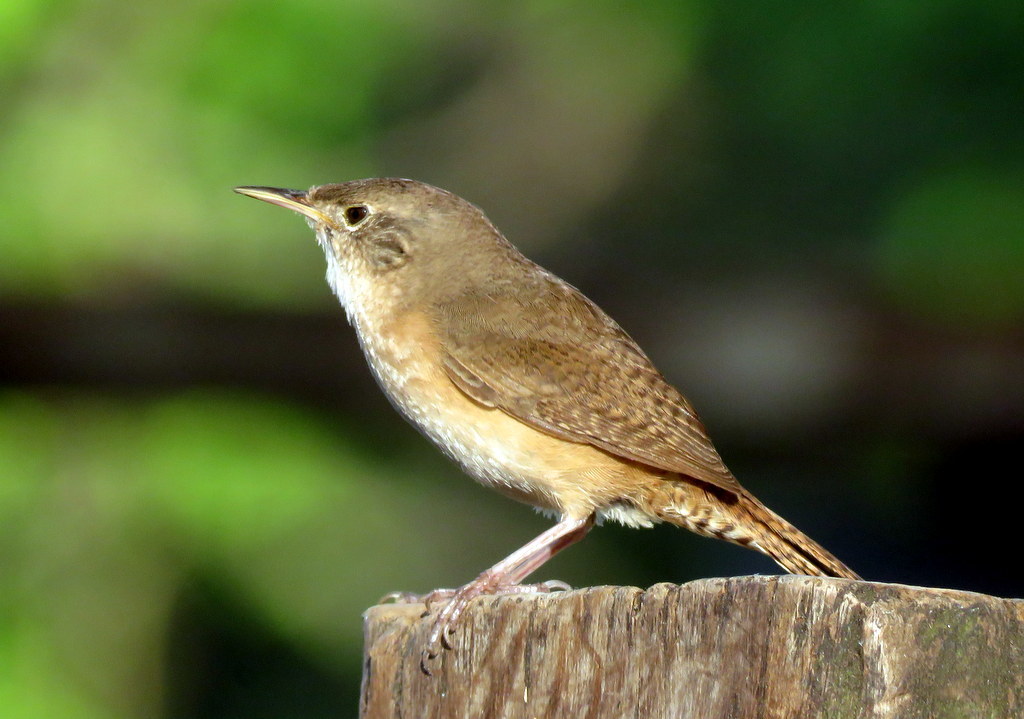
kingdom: Animalia
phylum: Chordata
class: Aves
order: Passeriformes
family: Troglodytidae
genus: Troglodytes
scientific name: Troglodytes aedon
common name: House wren
